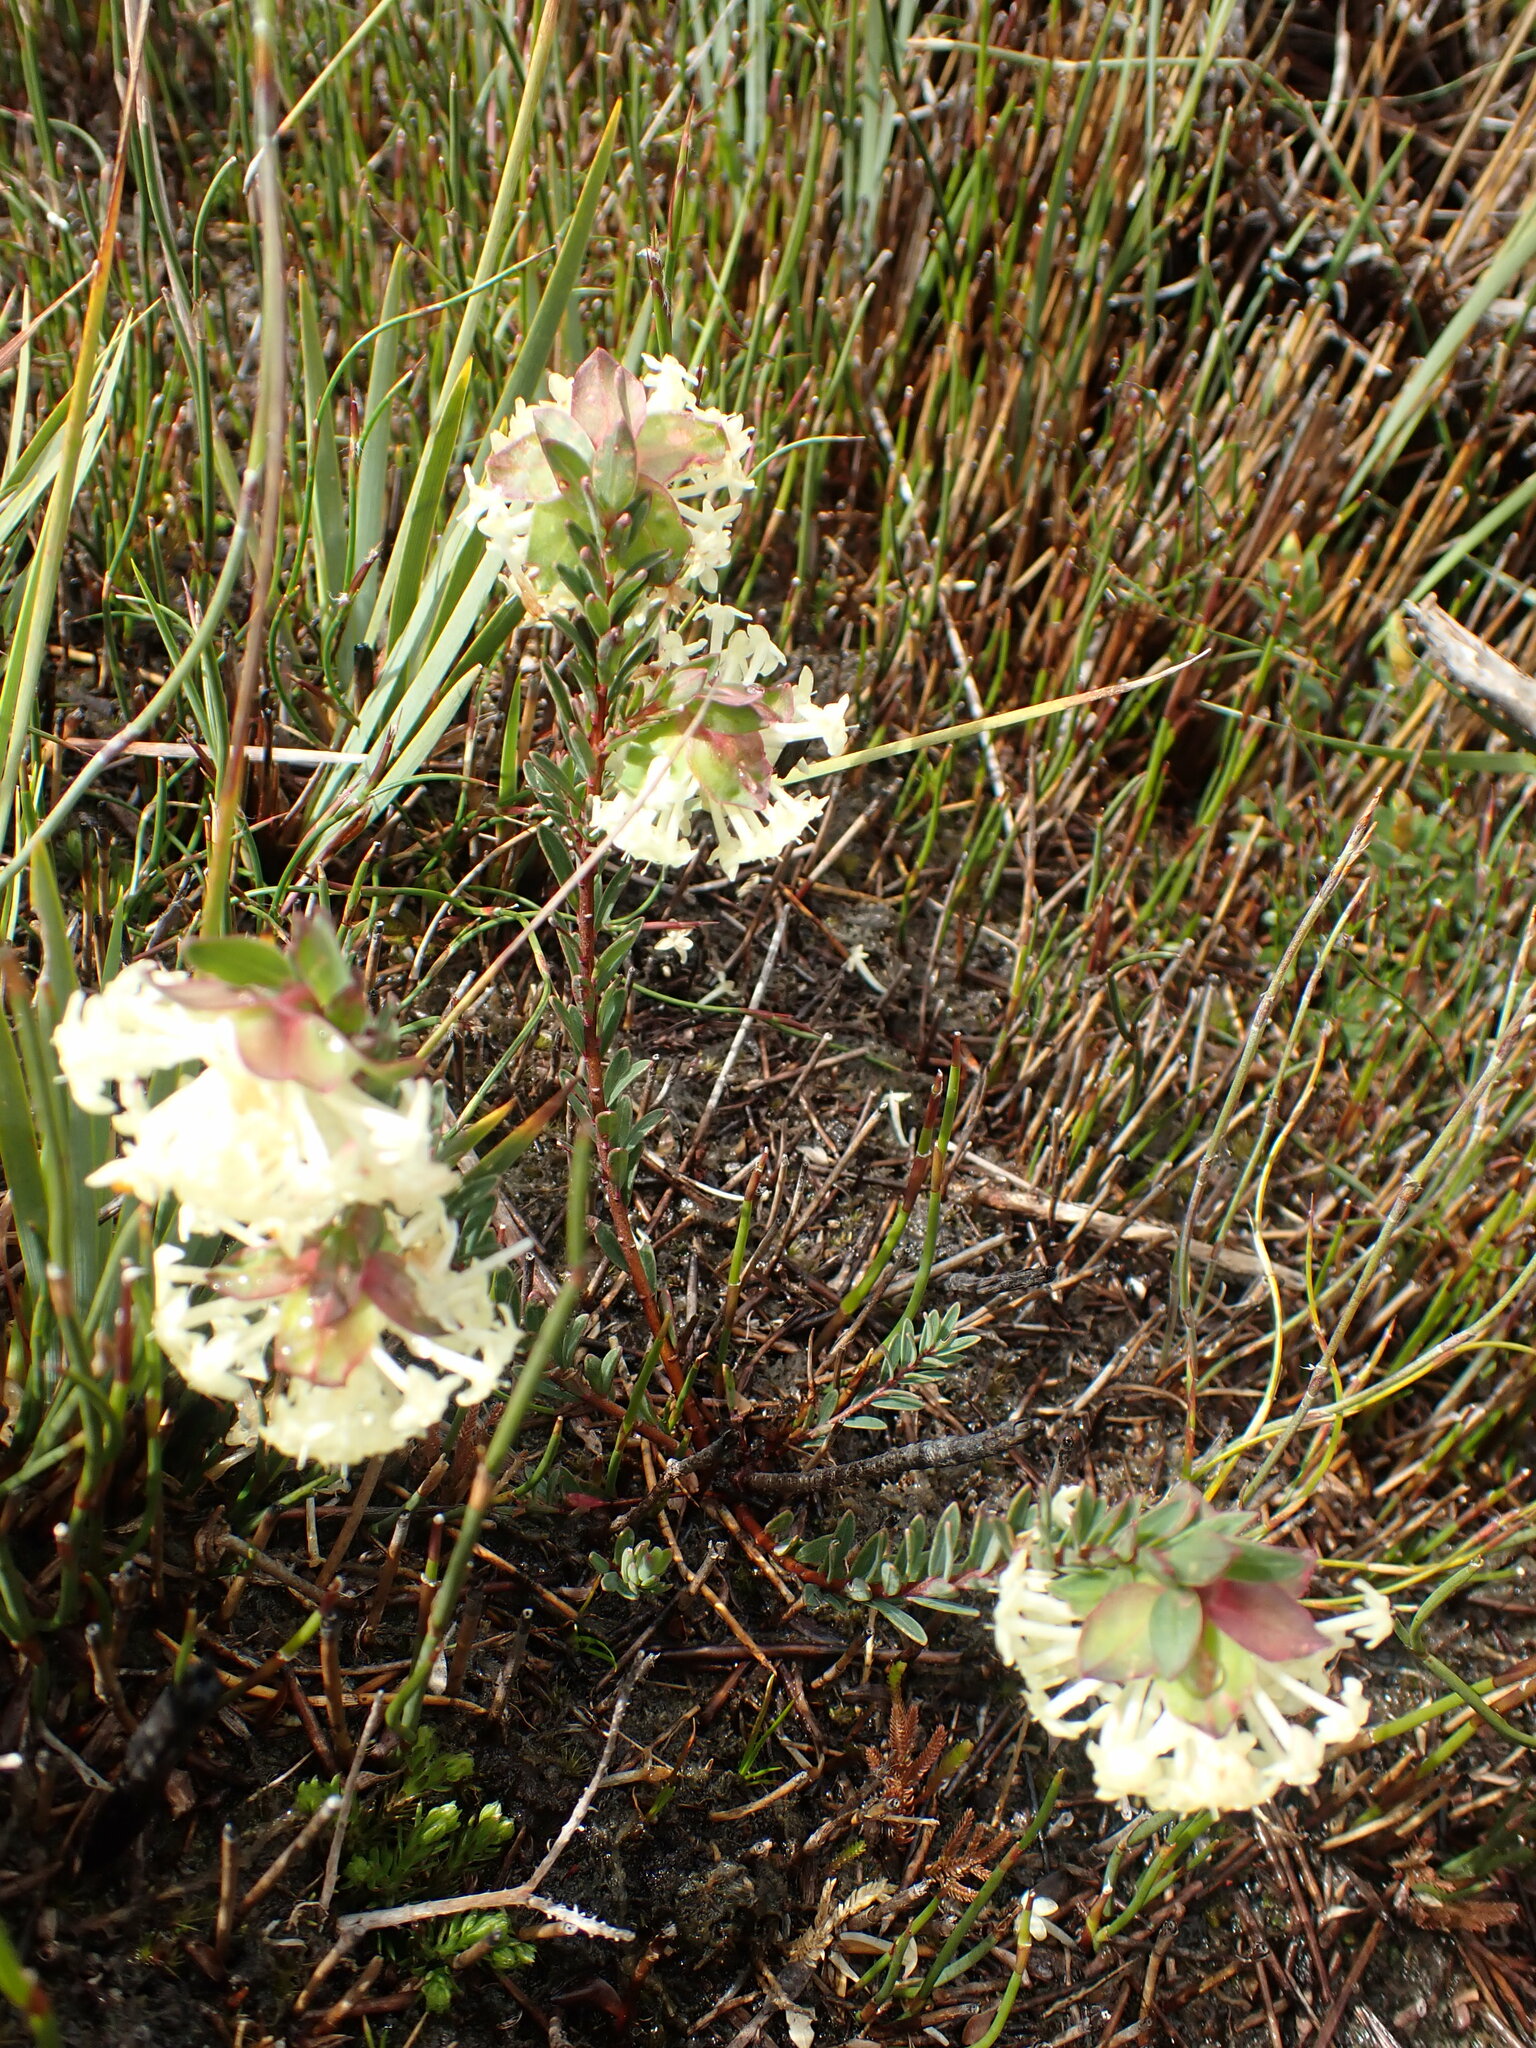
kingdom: Plantae
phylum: Tracheophyta
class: Magnoliopsida
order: Malvales
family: Thymelaeaceae
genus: Pimelea
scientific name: Pimelea linifolia
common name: Queen-of-the-bush
